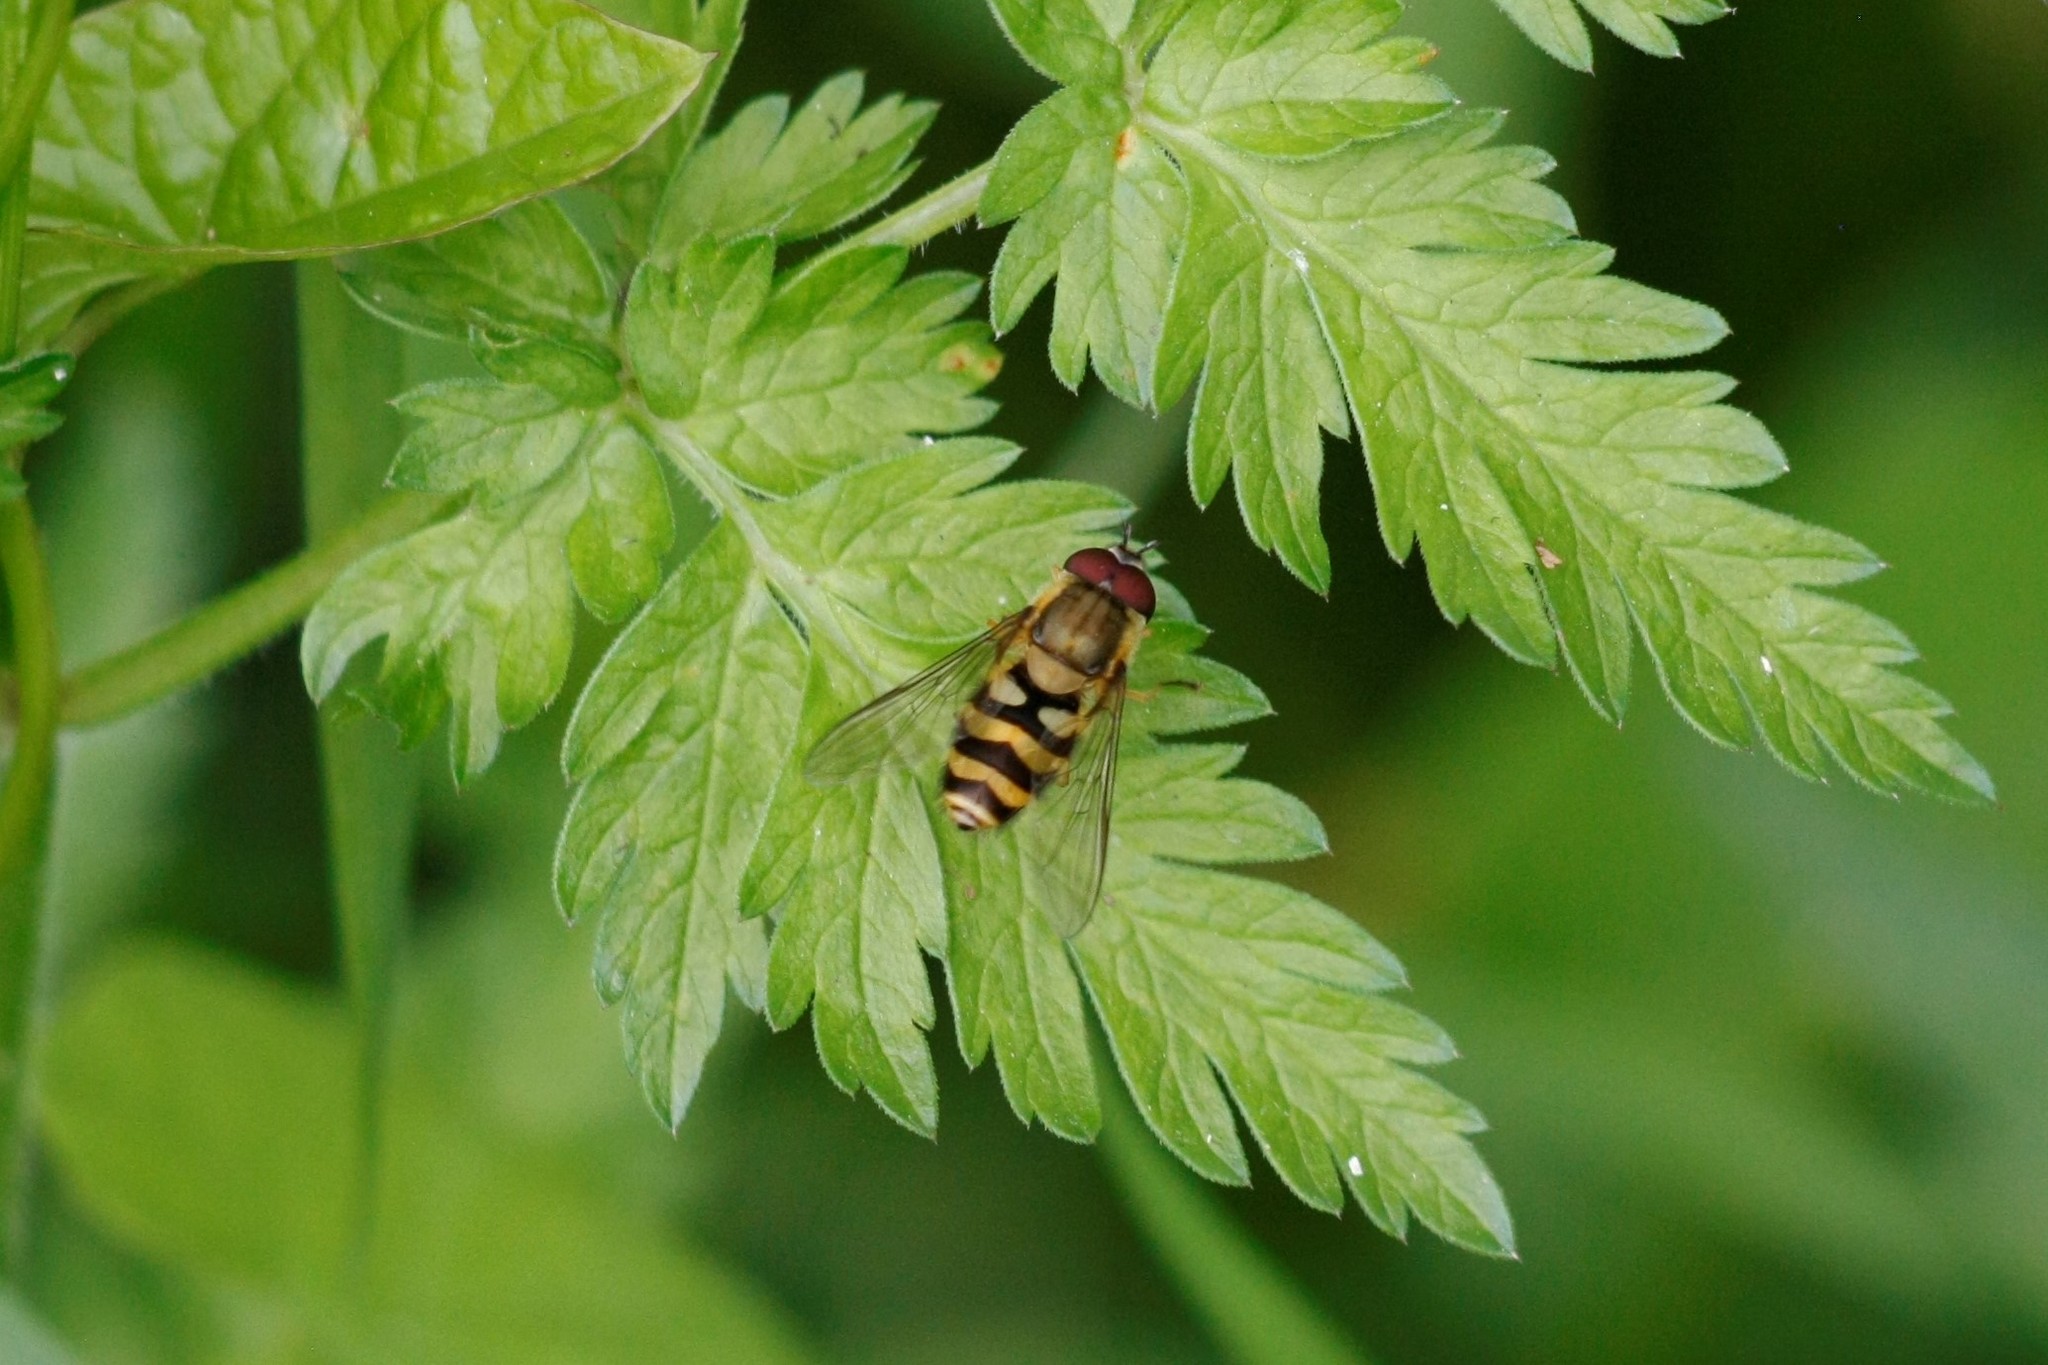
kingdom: Animalia
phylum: Arthropoda
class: Insecta
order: Diptera
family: Syrphidae
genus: Syrphus
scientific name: Syrphus
